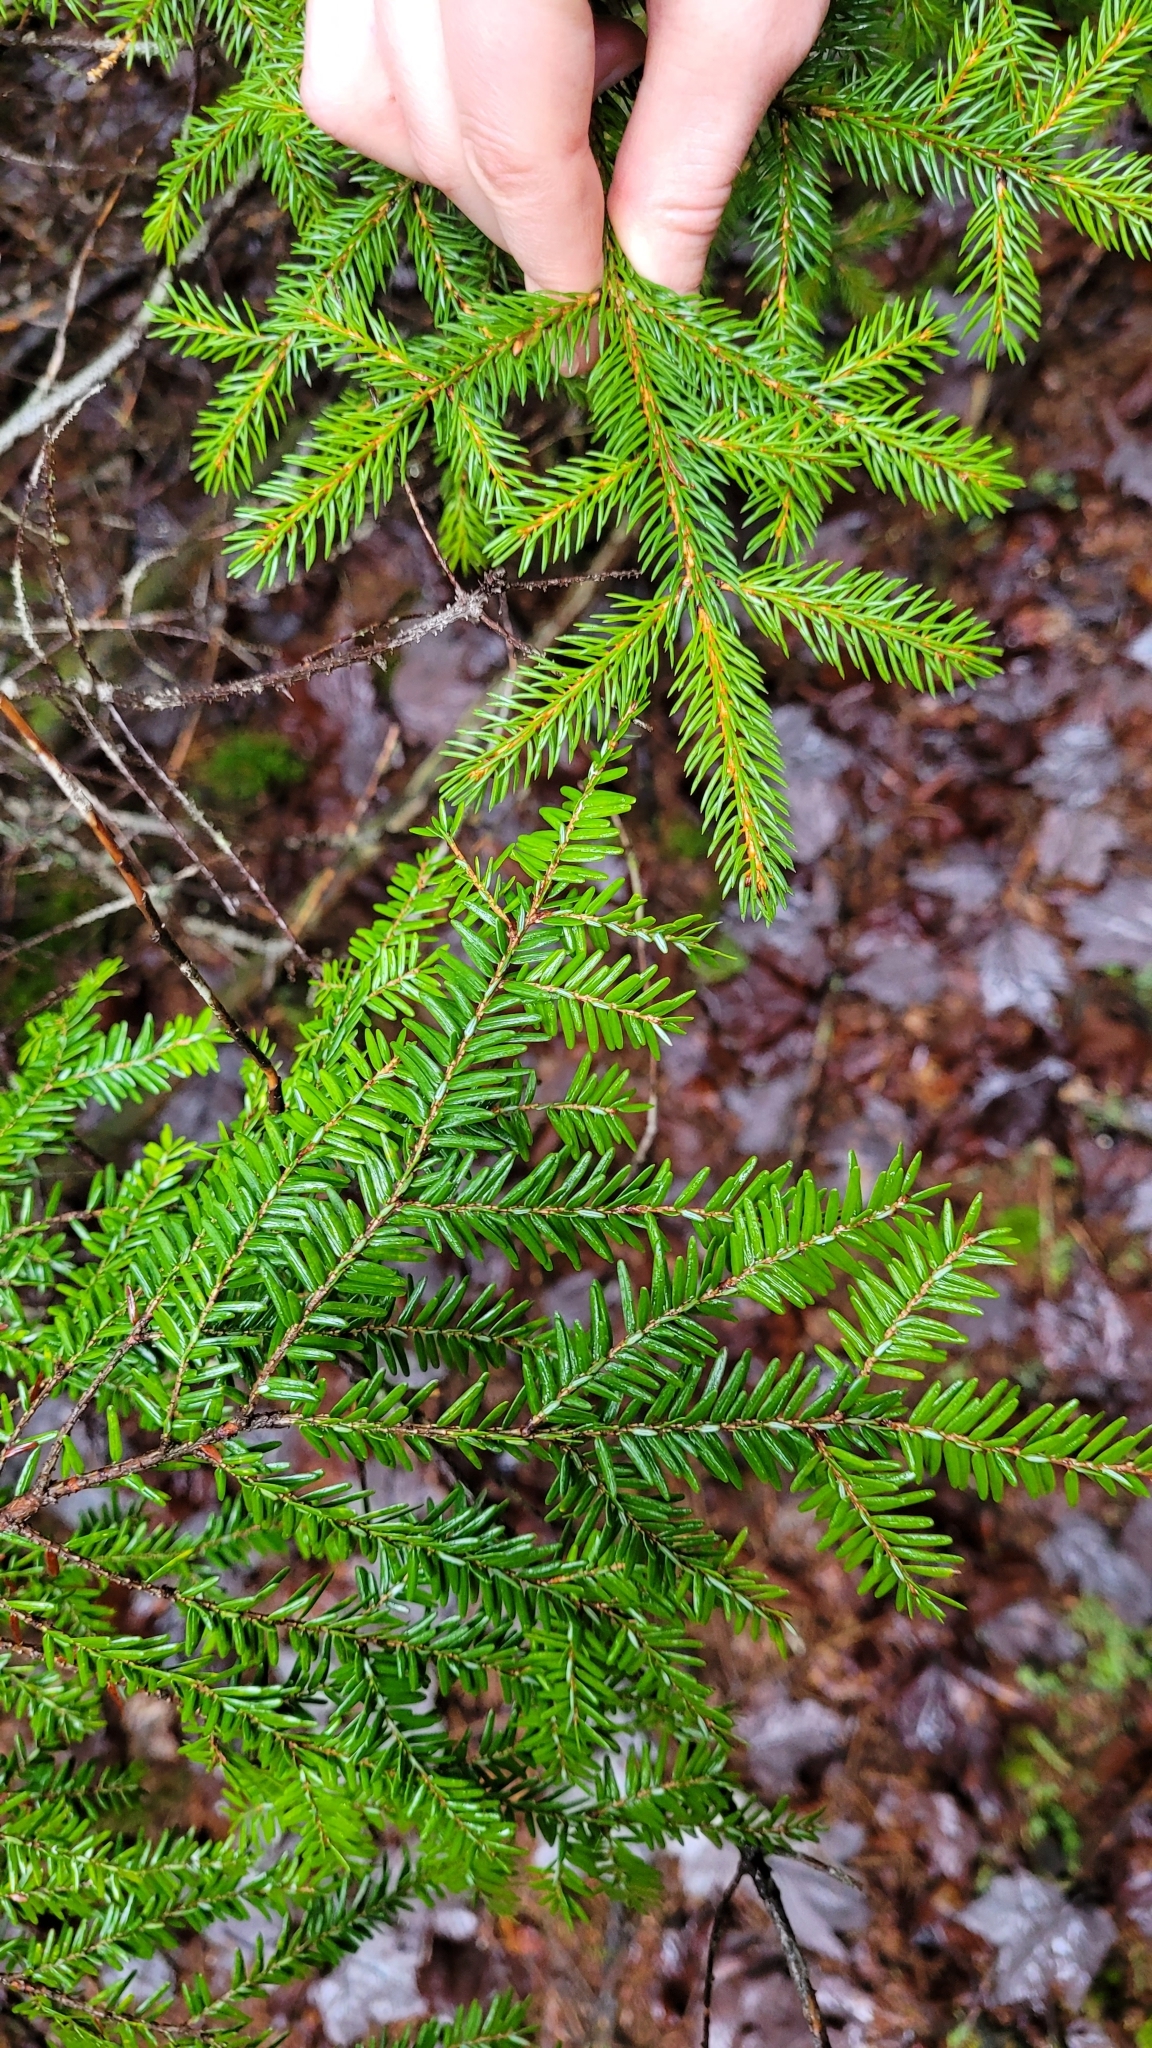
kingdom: Plantae
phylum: Tracheophyta
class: Pinopsida
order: Pinales
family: Pinaceae
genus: Tsuga
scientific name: Tsuga canadensis
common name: Eastern hemlock
